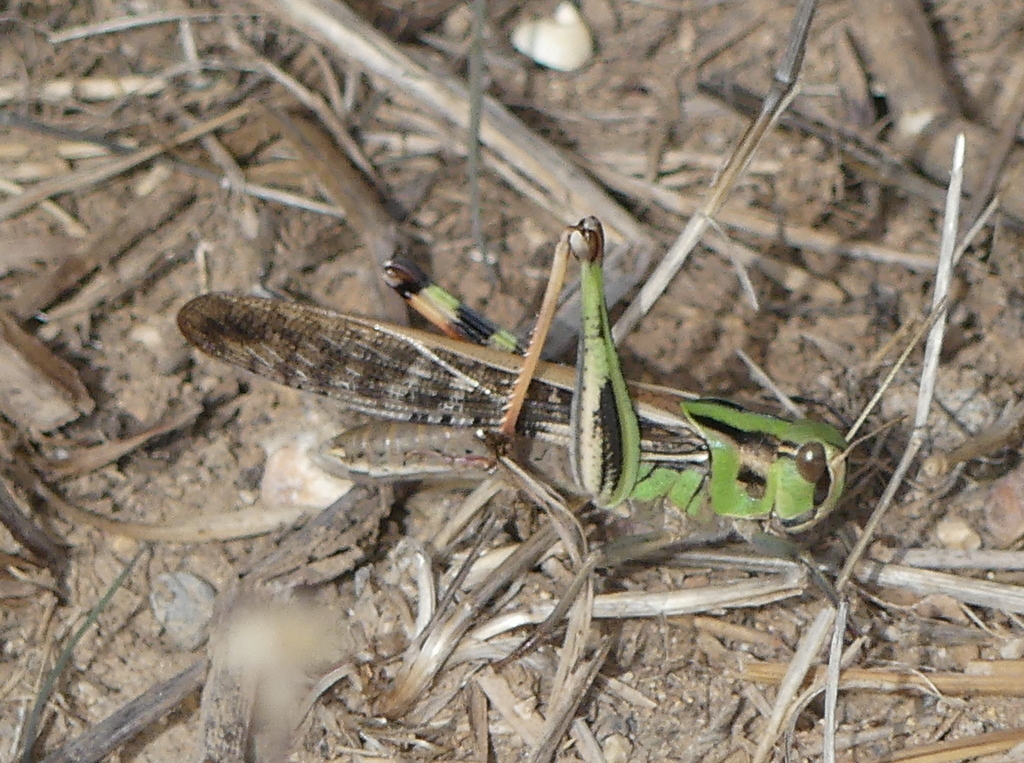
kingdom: Animalia
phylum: Arthropoda
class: Insecta
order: Orthoptera
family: Acrididae
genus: Locusta
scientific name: Locusta migratoria
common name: Migratory locust
